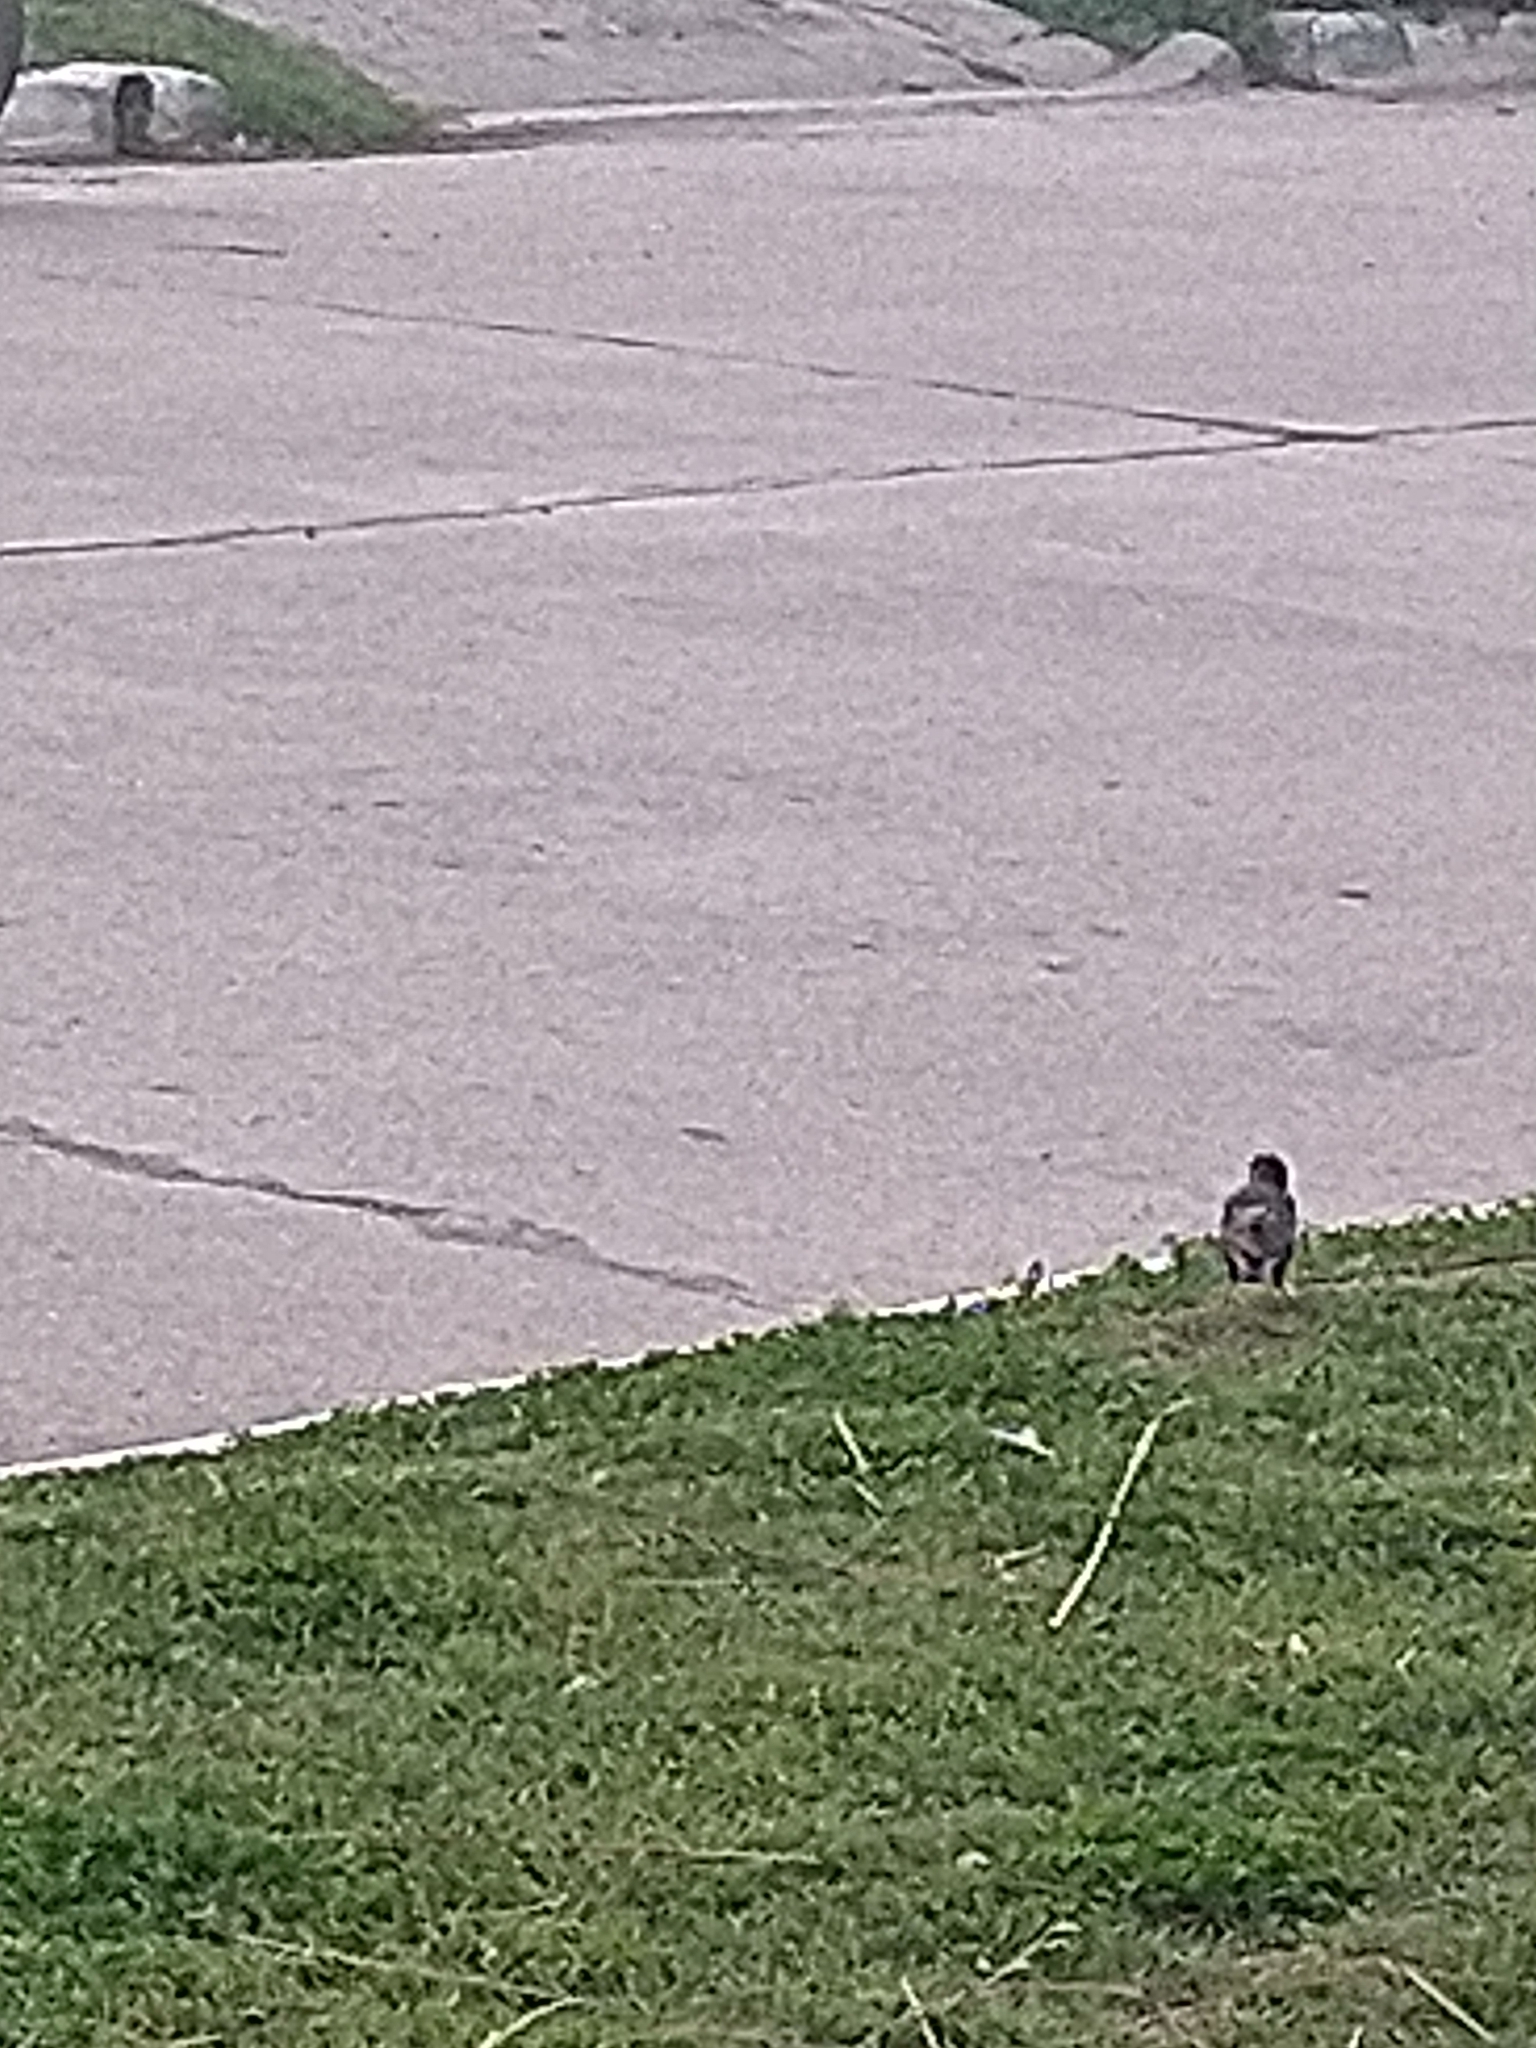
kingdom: Animalia
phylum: Chordata
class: Aves
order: Passeriformes
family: Sturnidae
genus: Sturnus
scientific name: Sturnus vulgaris
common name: Common starling
